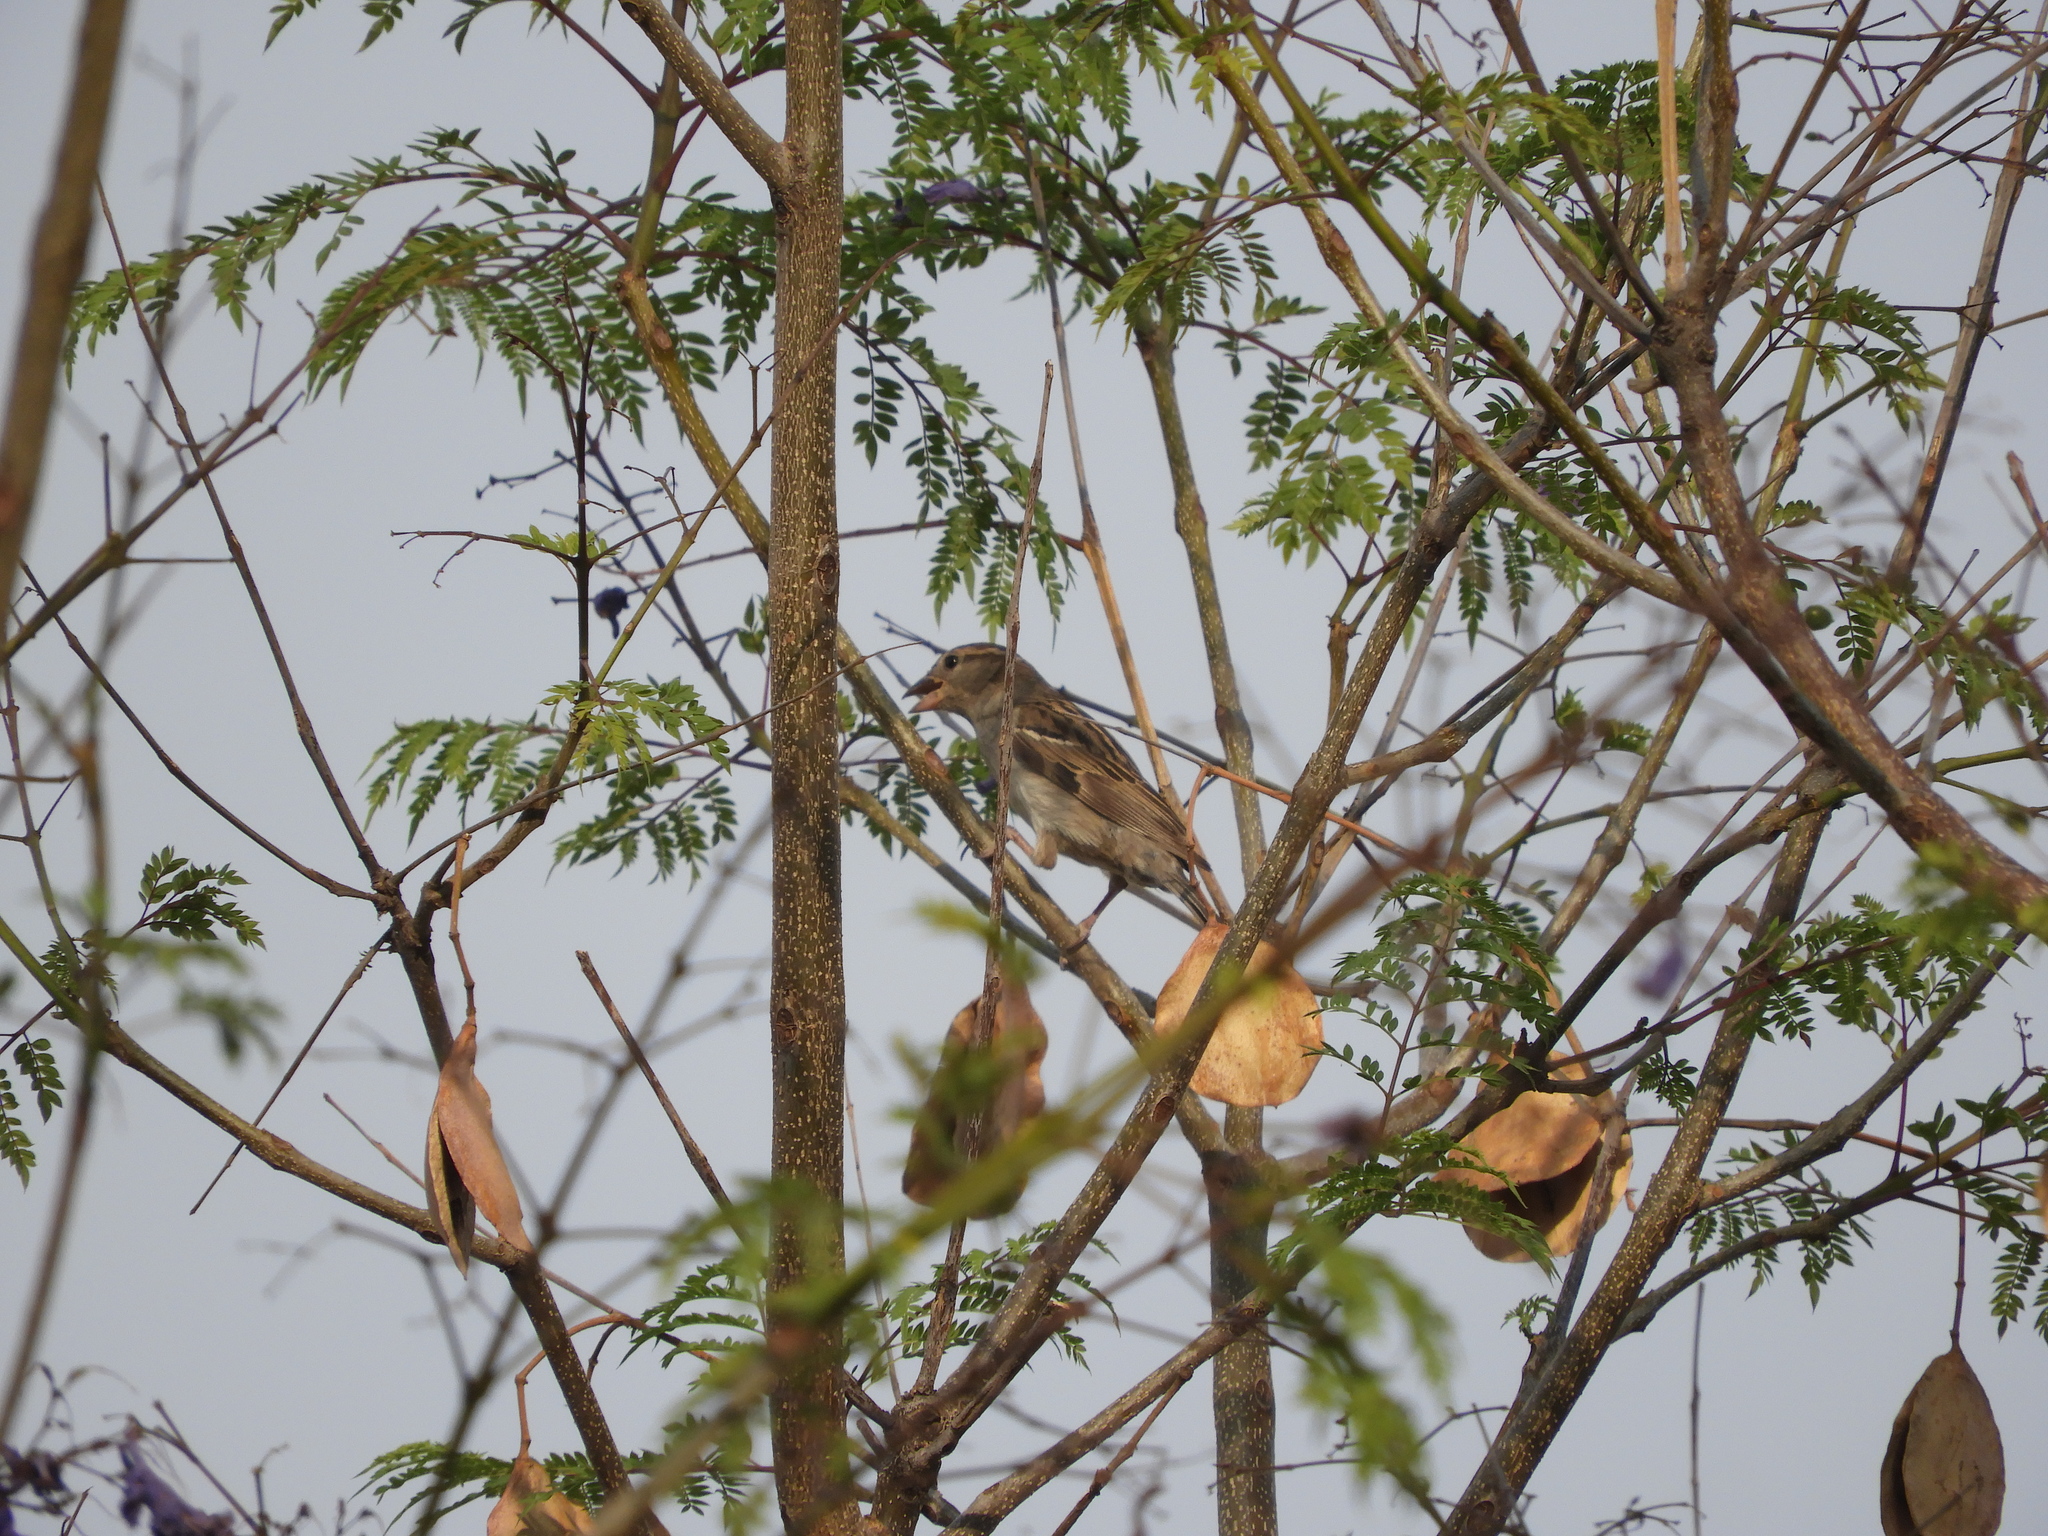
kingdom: Animalia
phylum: Chordata
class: Aves
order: Passeriformes
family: Passeridae
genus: Passer
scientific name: Passer domesticus
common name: House sparrow
